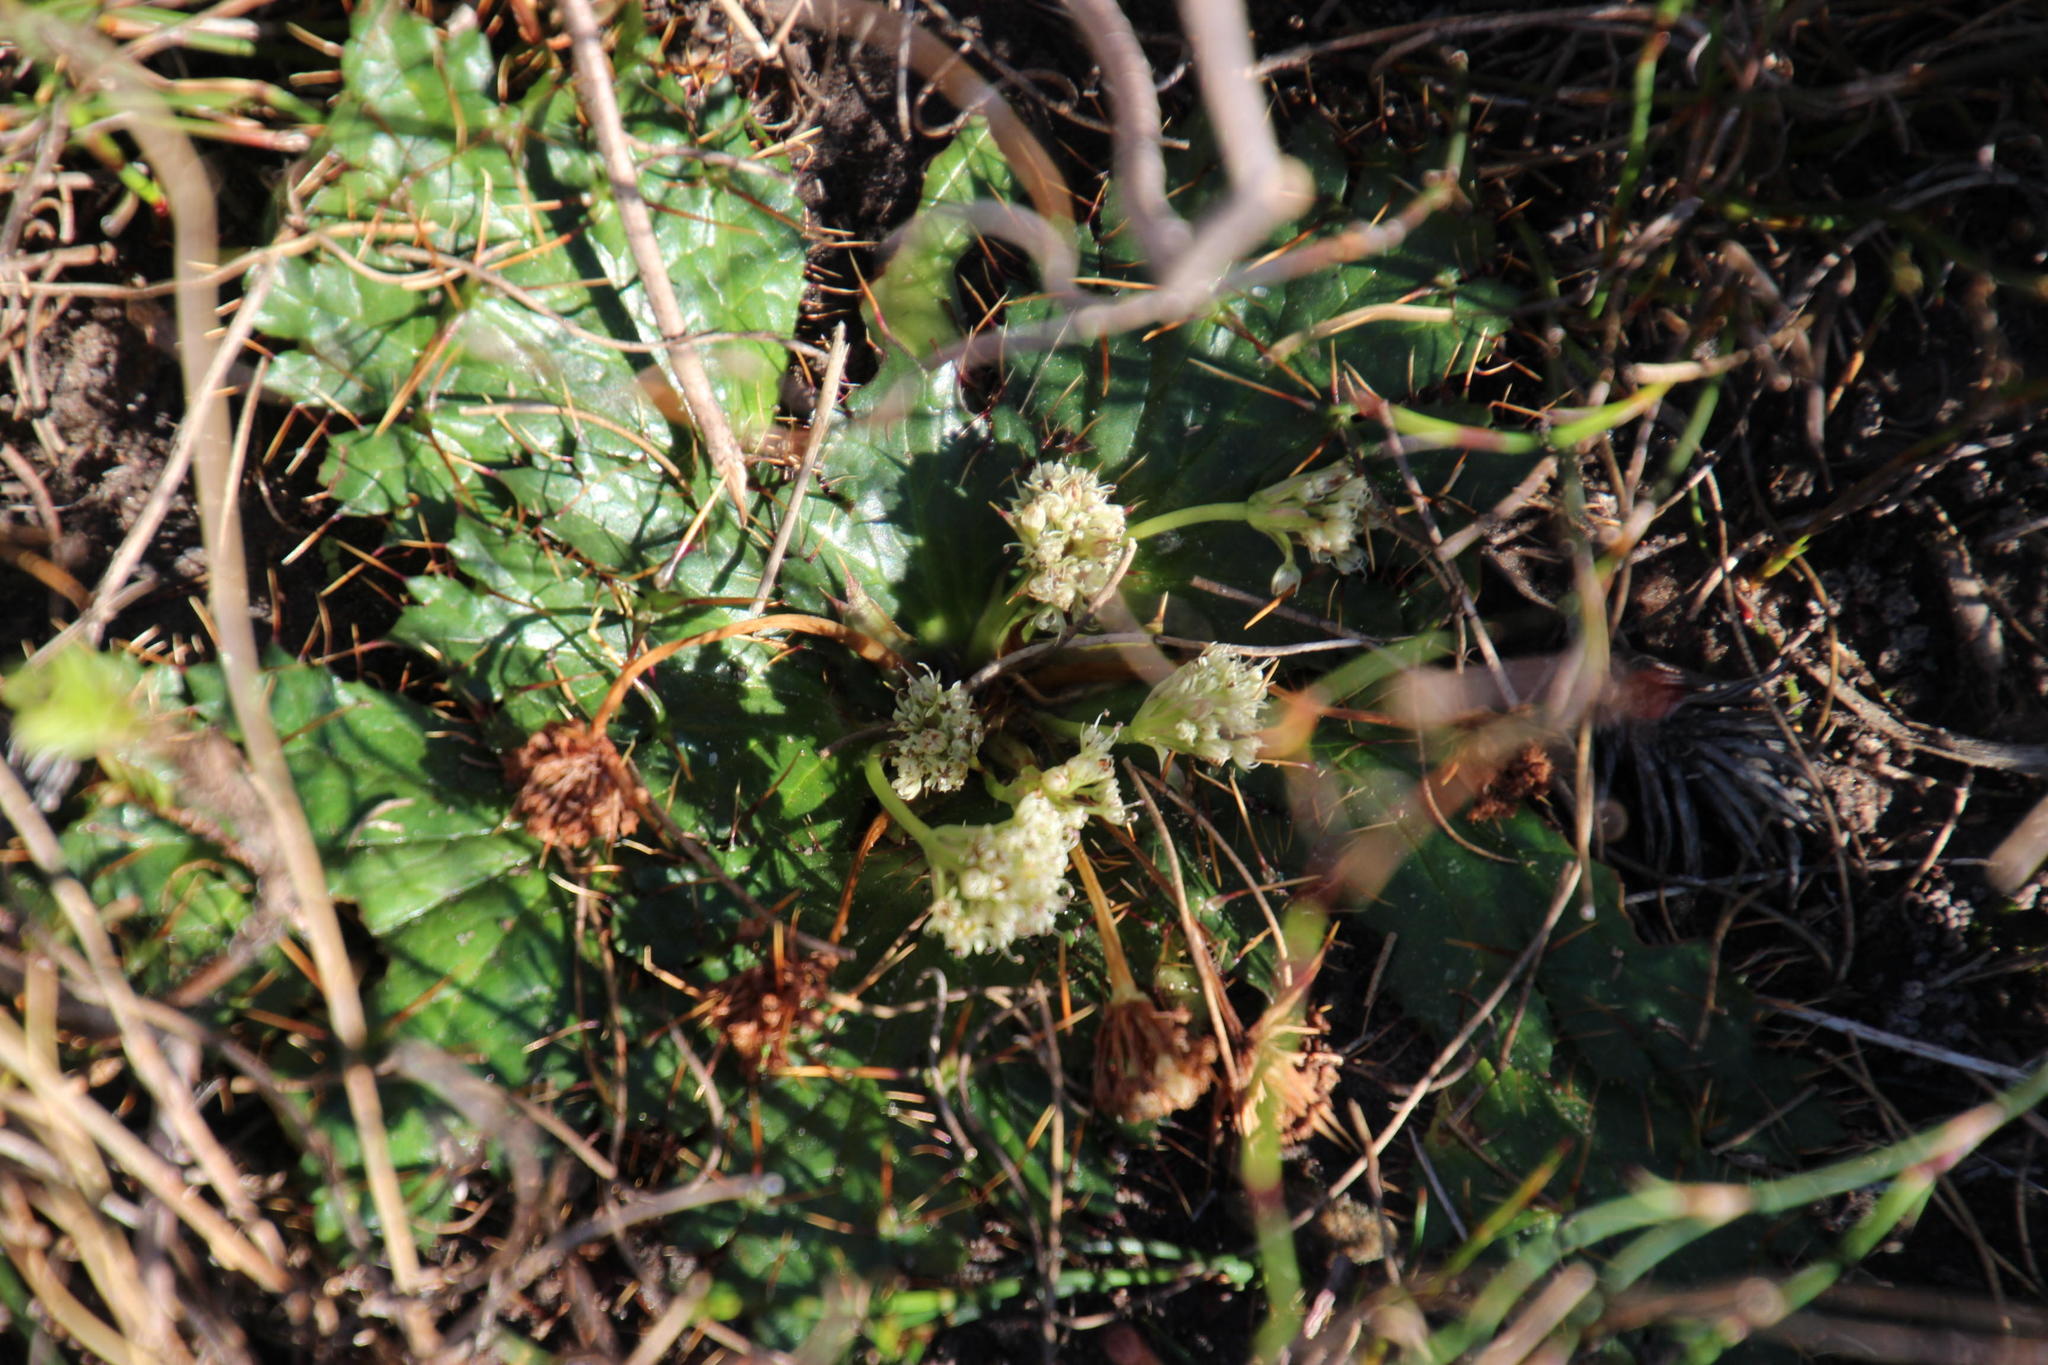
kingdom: Plantae
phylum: Tracheophyta
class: Magnoliopsida
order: Apiales
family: Apiaceae
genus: Arctopus
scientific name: Arctopus echinatus
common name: Platdoring
